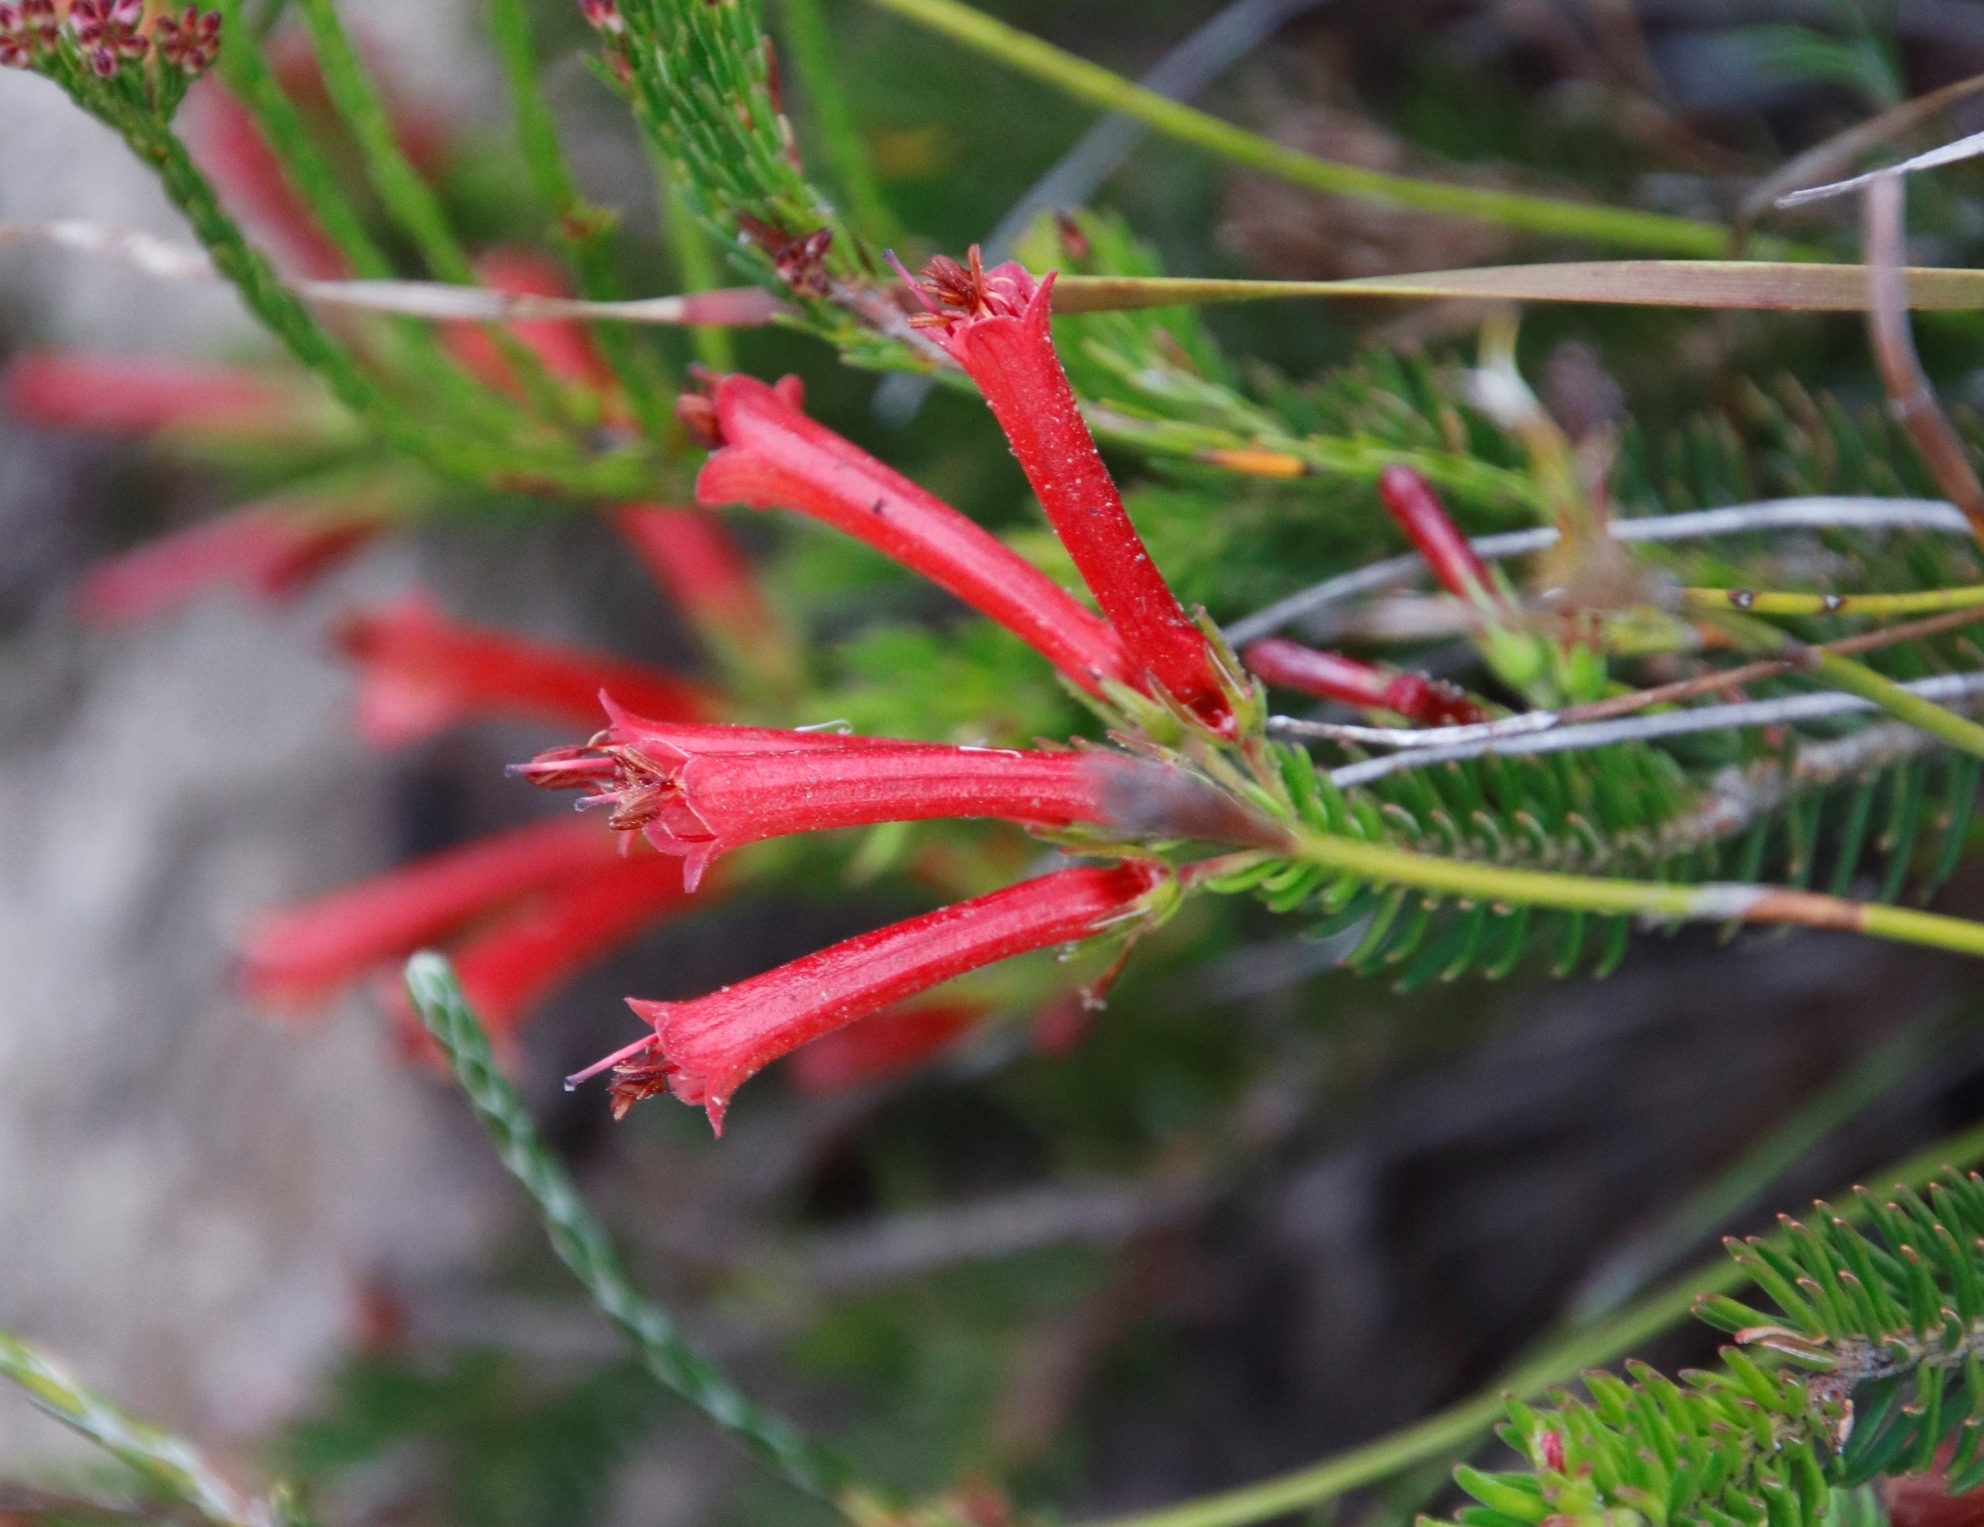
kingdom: Plantae
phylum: Tracheophyta
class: Magnoliopsida
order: Ericales
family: Ericaceae
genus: Erica
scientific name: Erica nevillei
